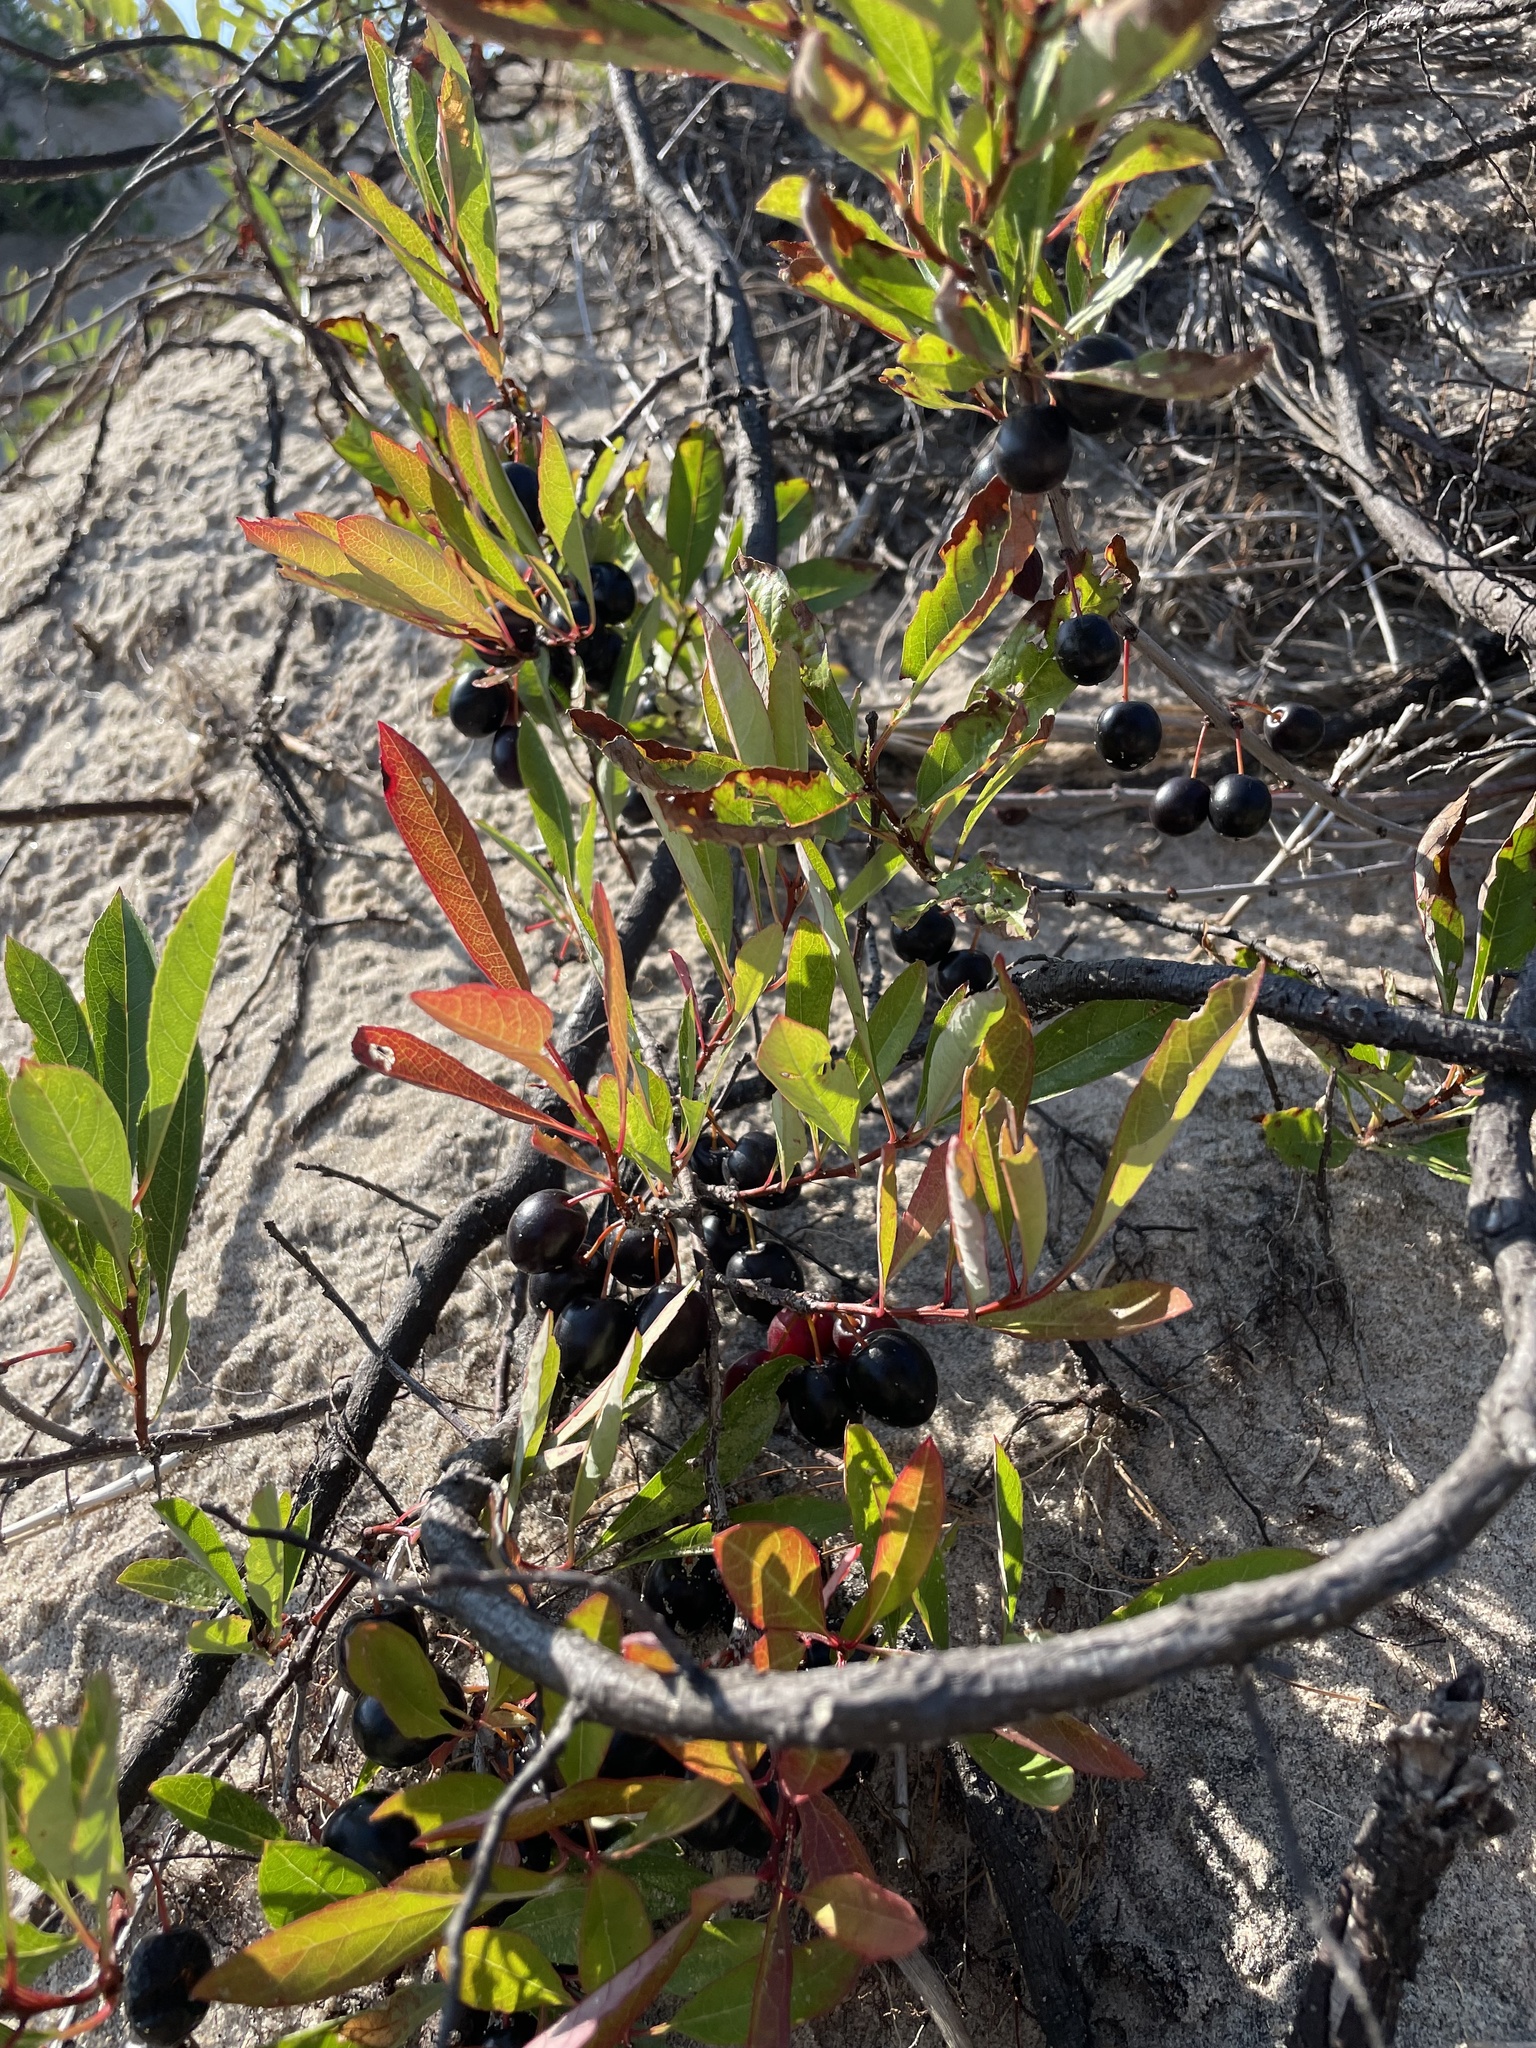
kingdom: Plantae
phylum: Tracheophyta
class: Magnoliopsida
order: Rosales
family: Rosaceae
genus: Prunus
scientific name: Prunus pumila
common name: Dwarf cherry
